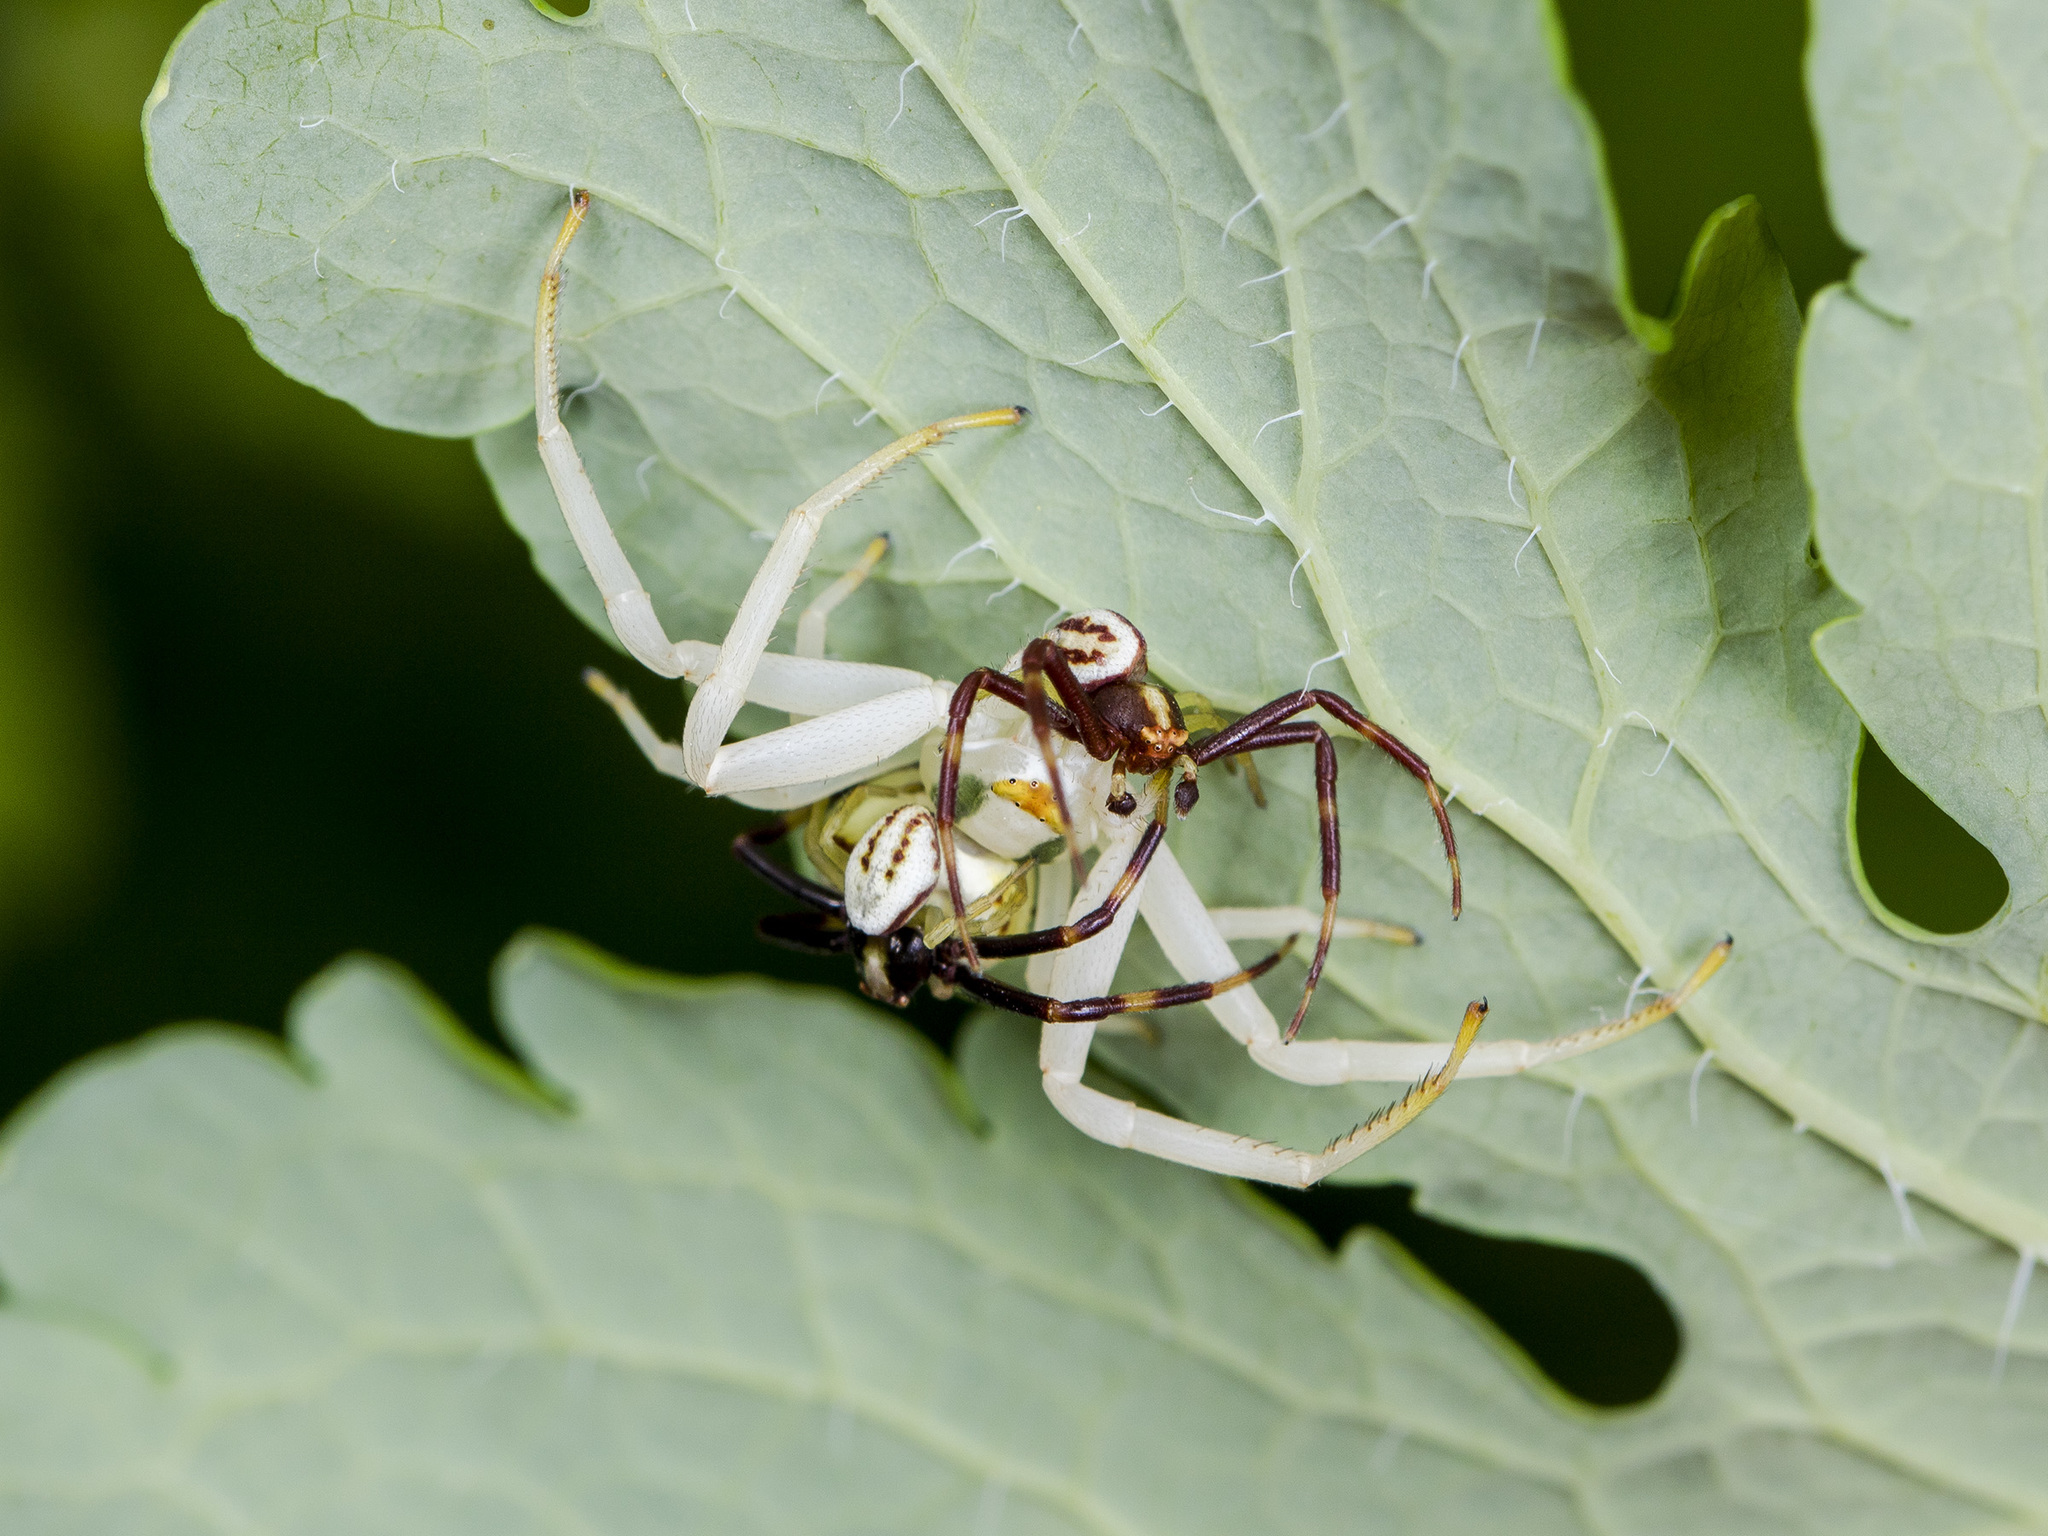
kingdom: Animalia
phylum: Arthropoda
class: Arachnida
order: Araneae
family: Thomisidae
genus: Misumena
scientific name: Misumena vatia
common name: Goldenrod crab spider
